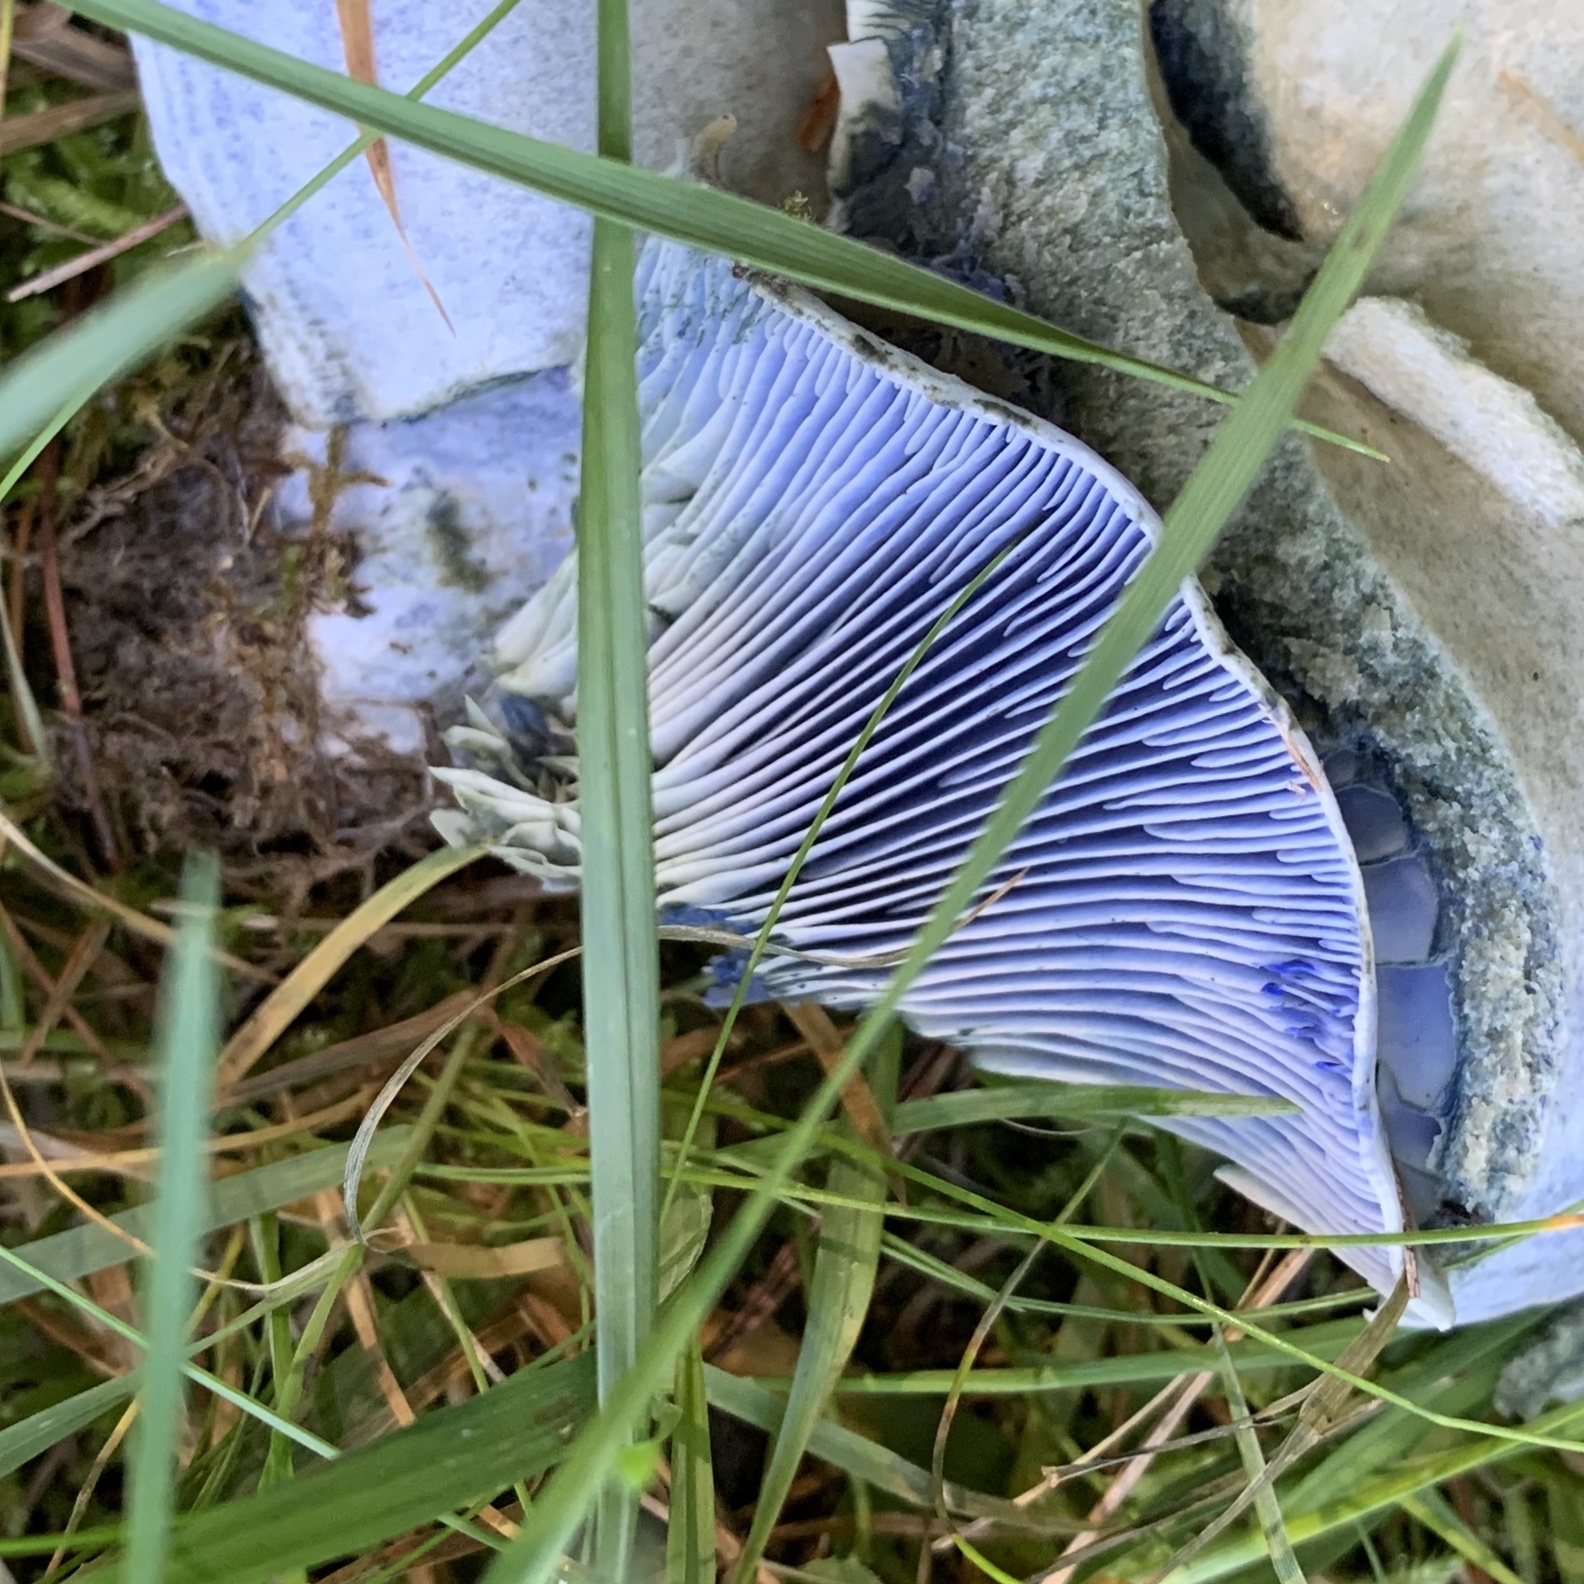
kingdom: Fungi
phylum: Basidiomycota
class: Agaricomycetes
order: Russulales
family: Russulaceae
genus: Lactarius
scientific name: Lactarius indigo
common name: Indigo milk cap
